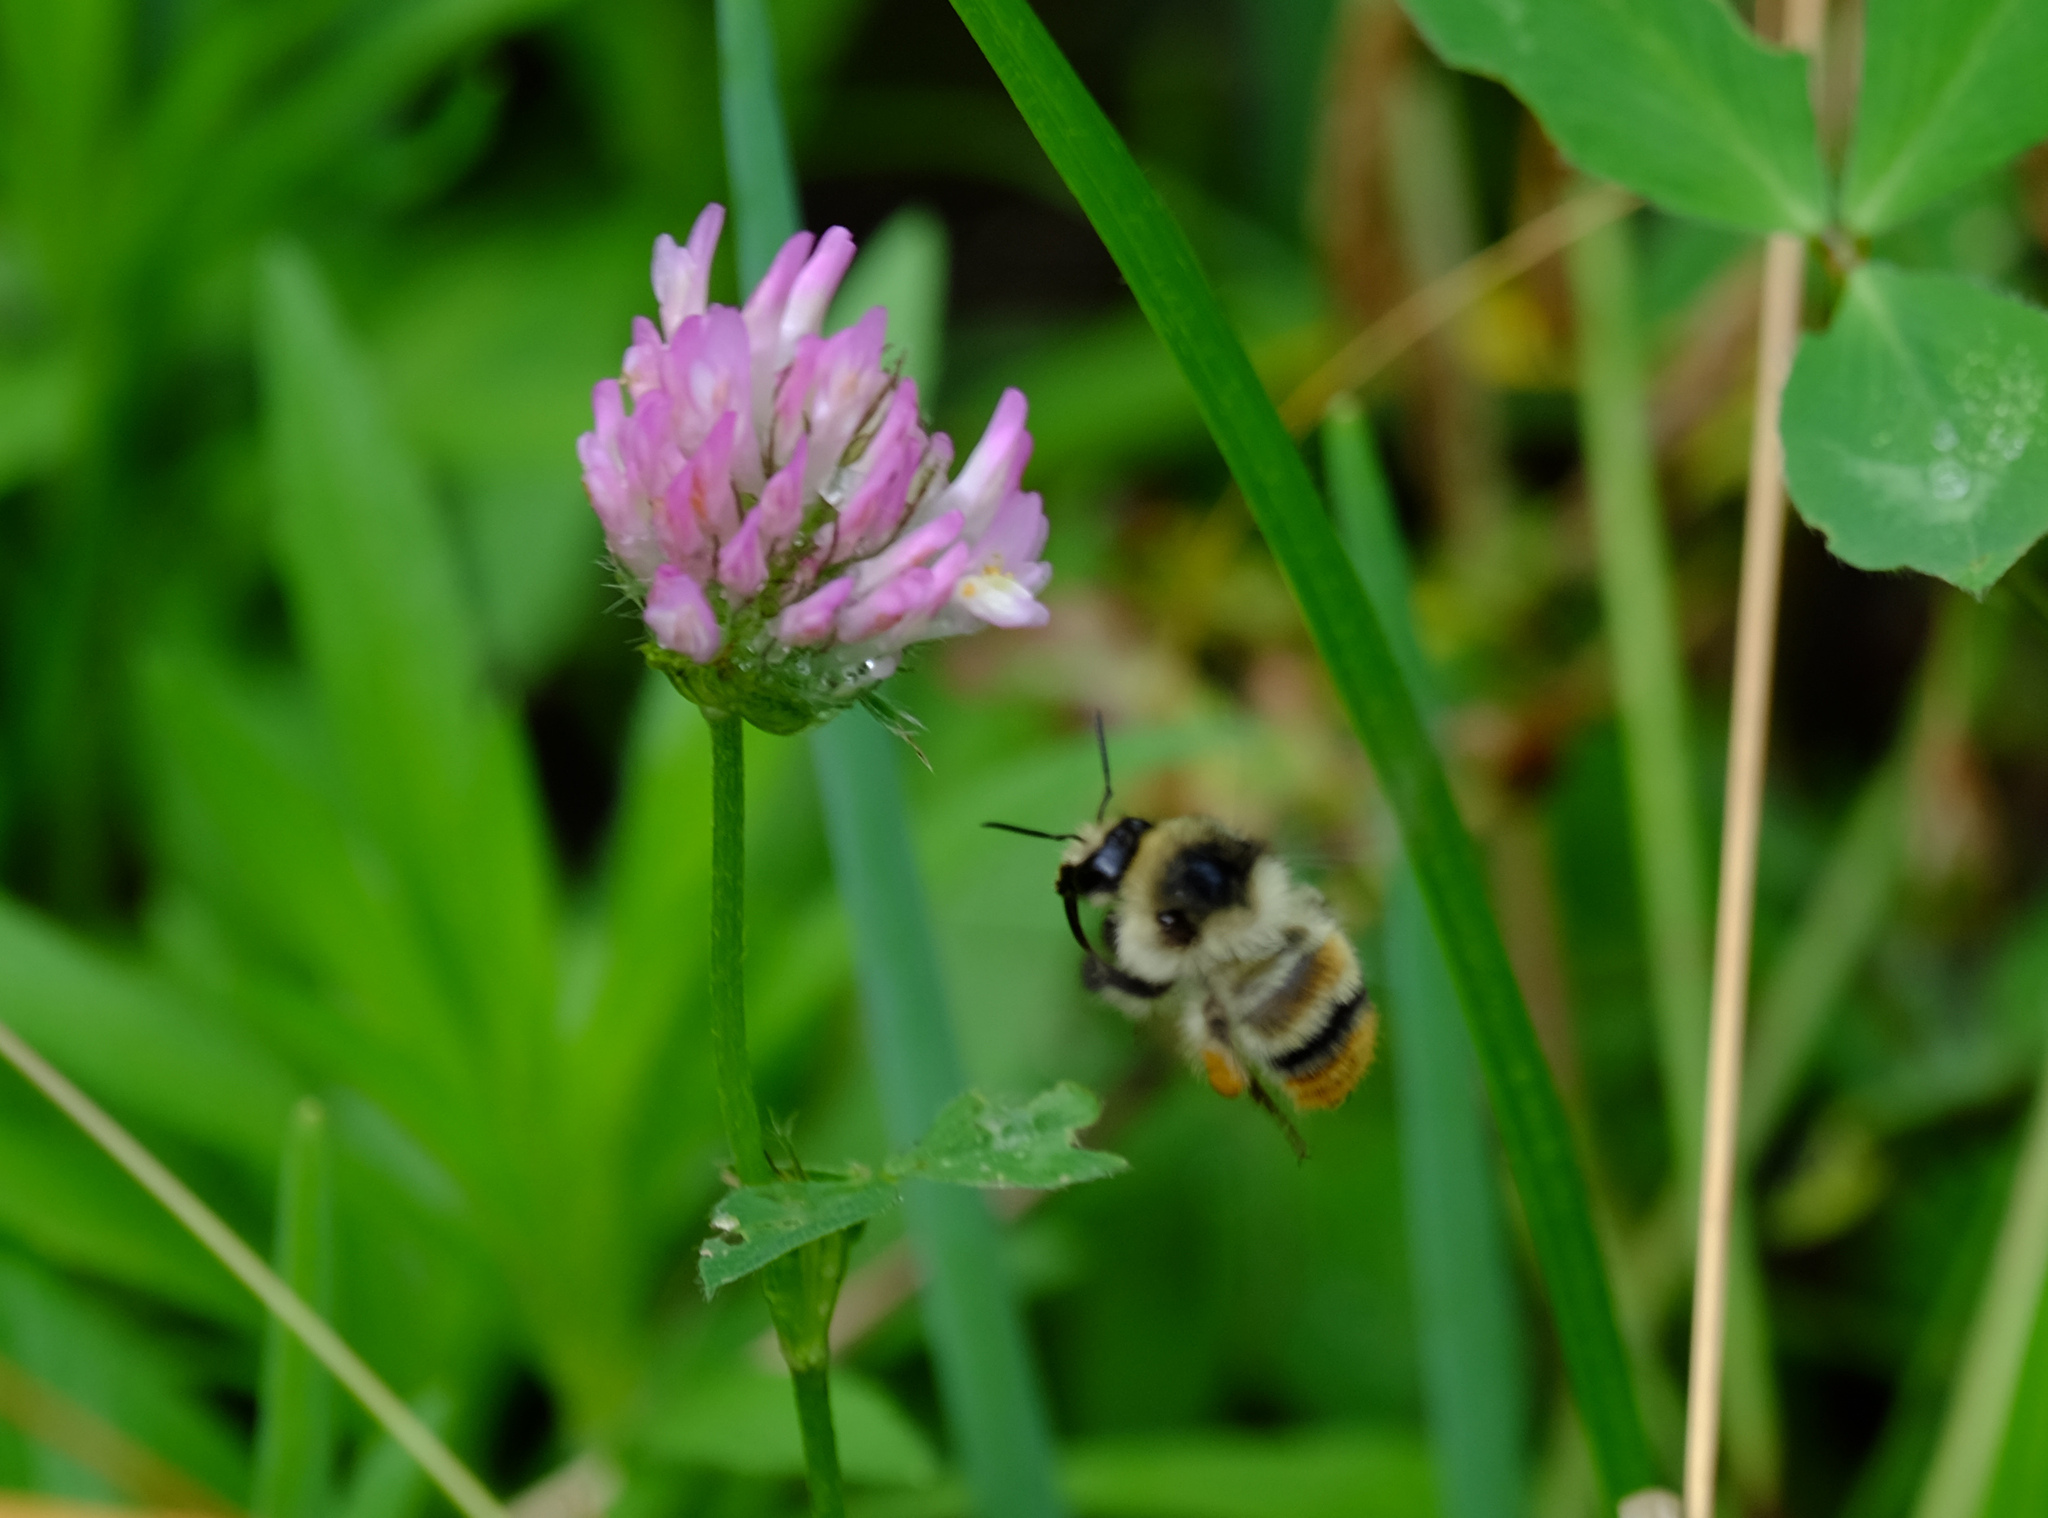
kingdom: Animalia
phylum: Arthropoda
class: Insecta
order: Hymenoptera
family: Apidae
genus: Bombus
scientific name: Bombus sylvarum
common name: Shrill carder bee
